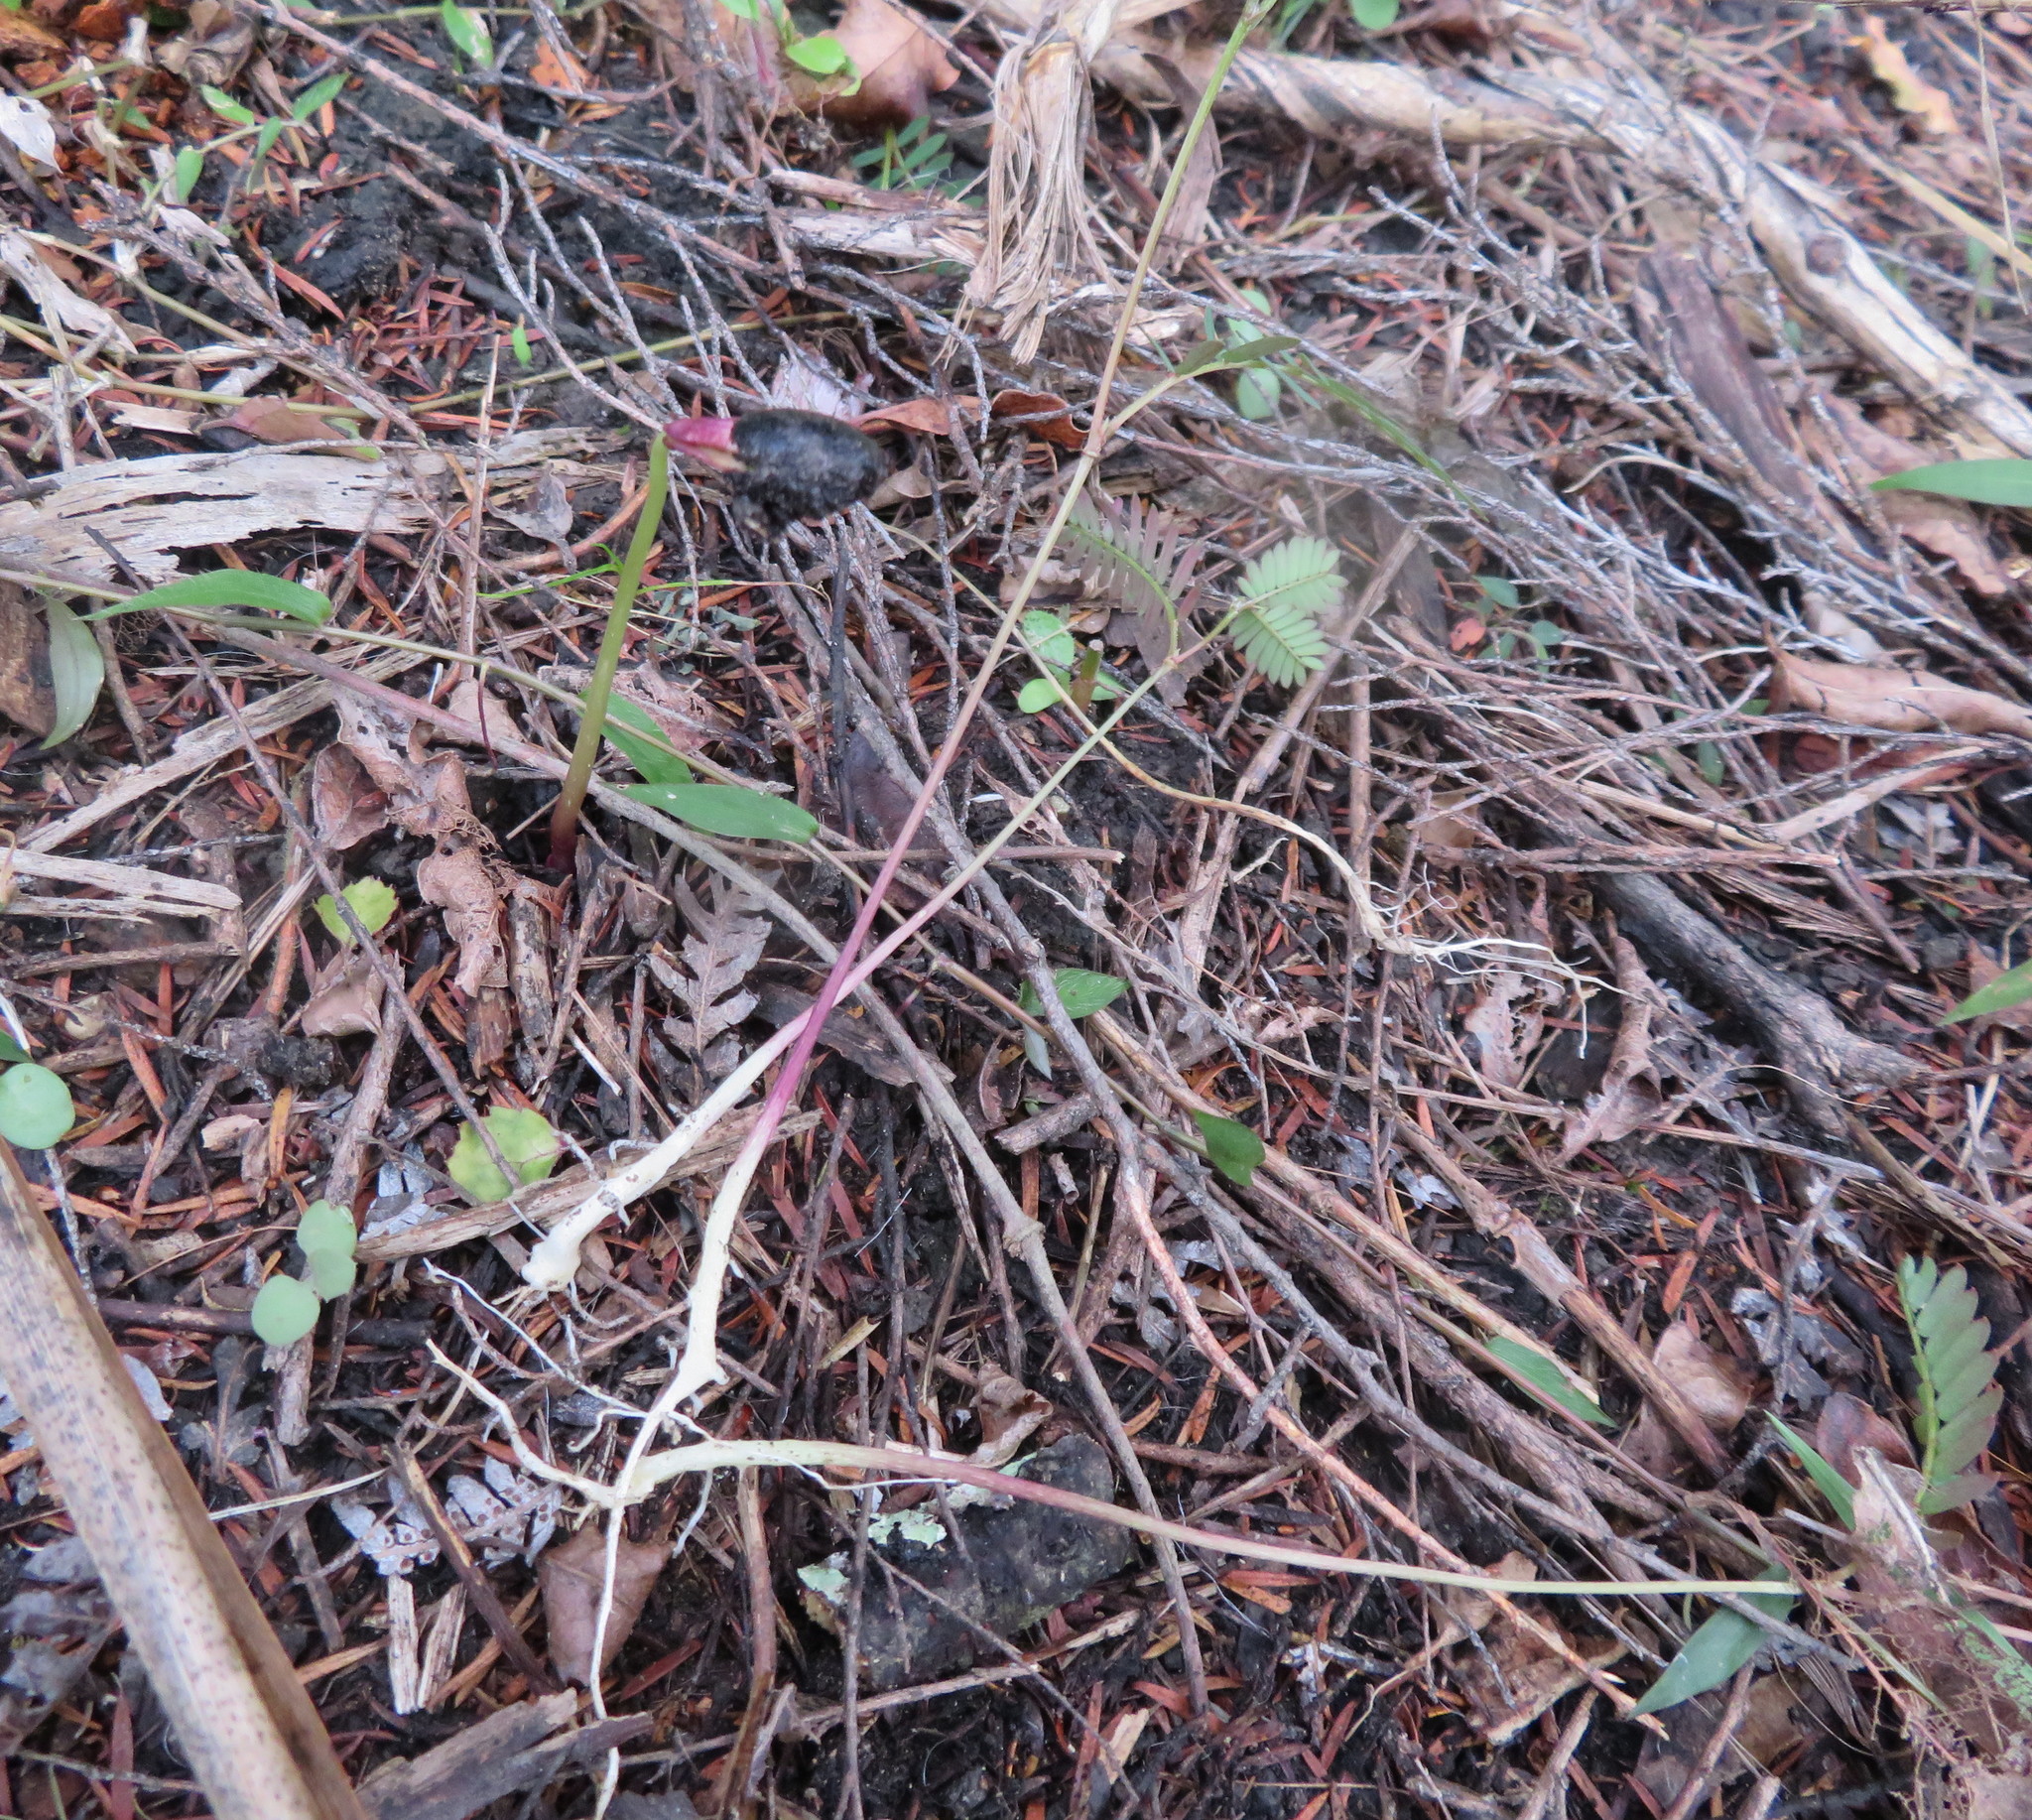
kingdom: Plantae
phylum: Tracheophyta
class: Magnoliopsida
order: Fabales
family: Fabaceae
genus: Paraserianthes
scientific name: Paraserianthes lophantha
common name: Plume albizia
